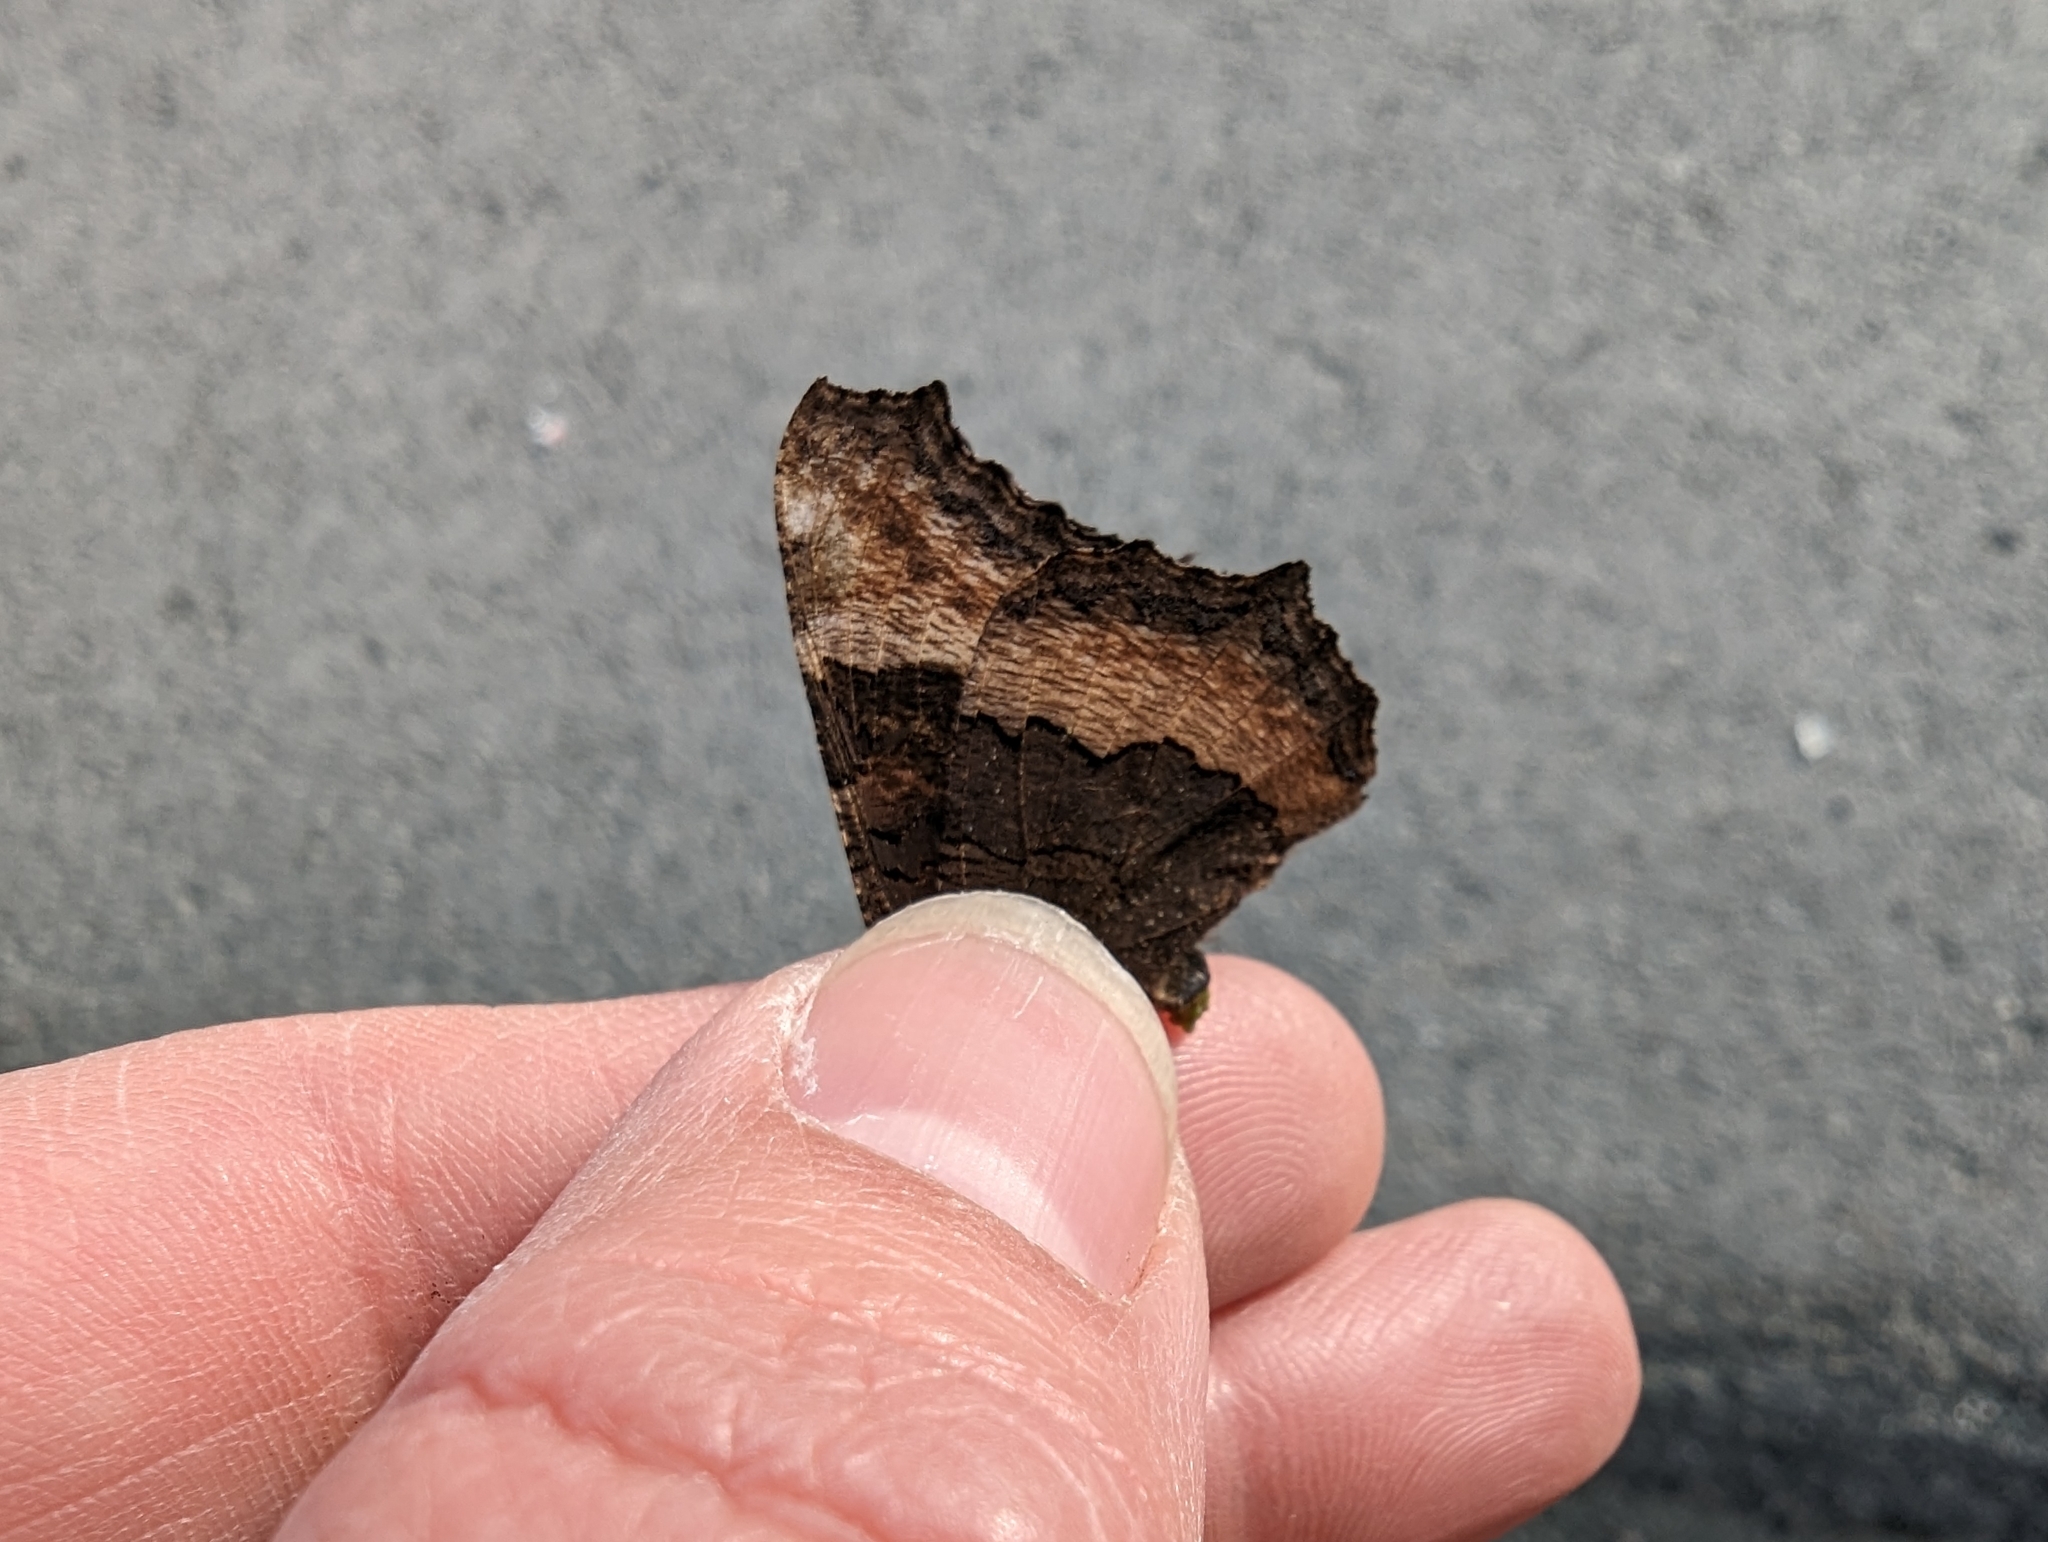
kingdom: Animalia
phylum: Arthropoda
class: Insecta
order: Lepidoptera
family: Nymphalidae
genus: Aglais
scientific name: Aglais milberti
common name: Milbert's tortoiseshell
